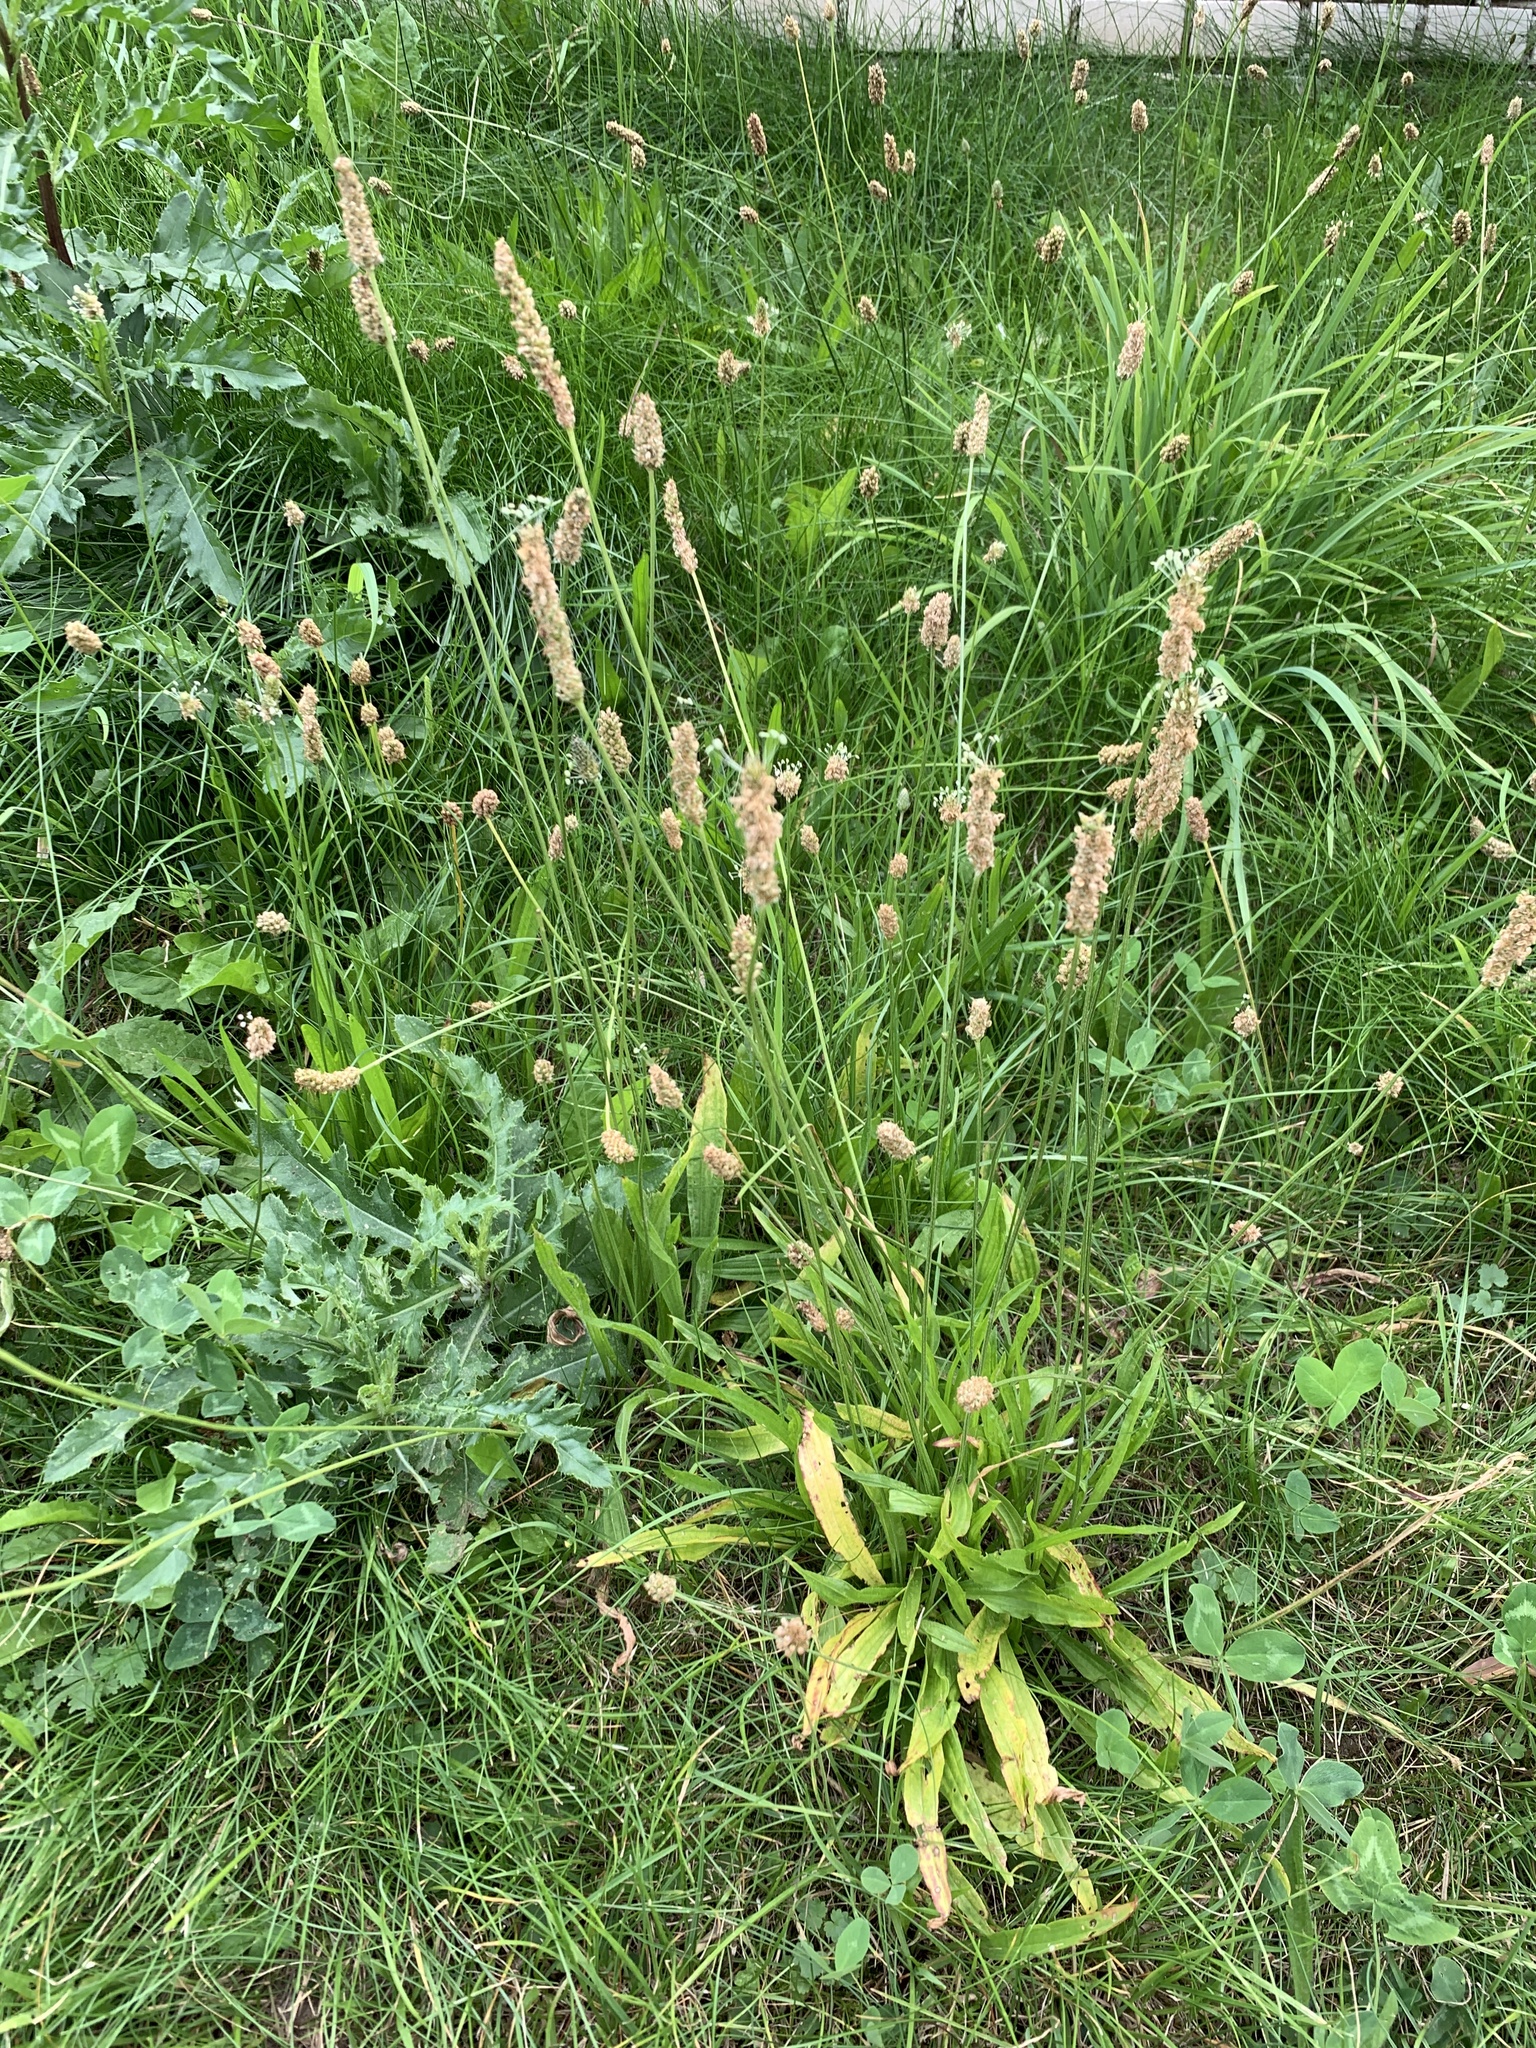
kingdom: Plantae
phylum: Tracheophyta
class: Magnoliopsida
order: Lamiales
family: Plantaginaceae
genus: Plantago
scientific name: Plantago lanceolata
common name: Ribwort plantain
